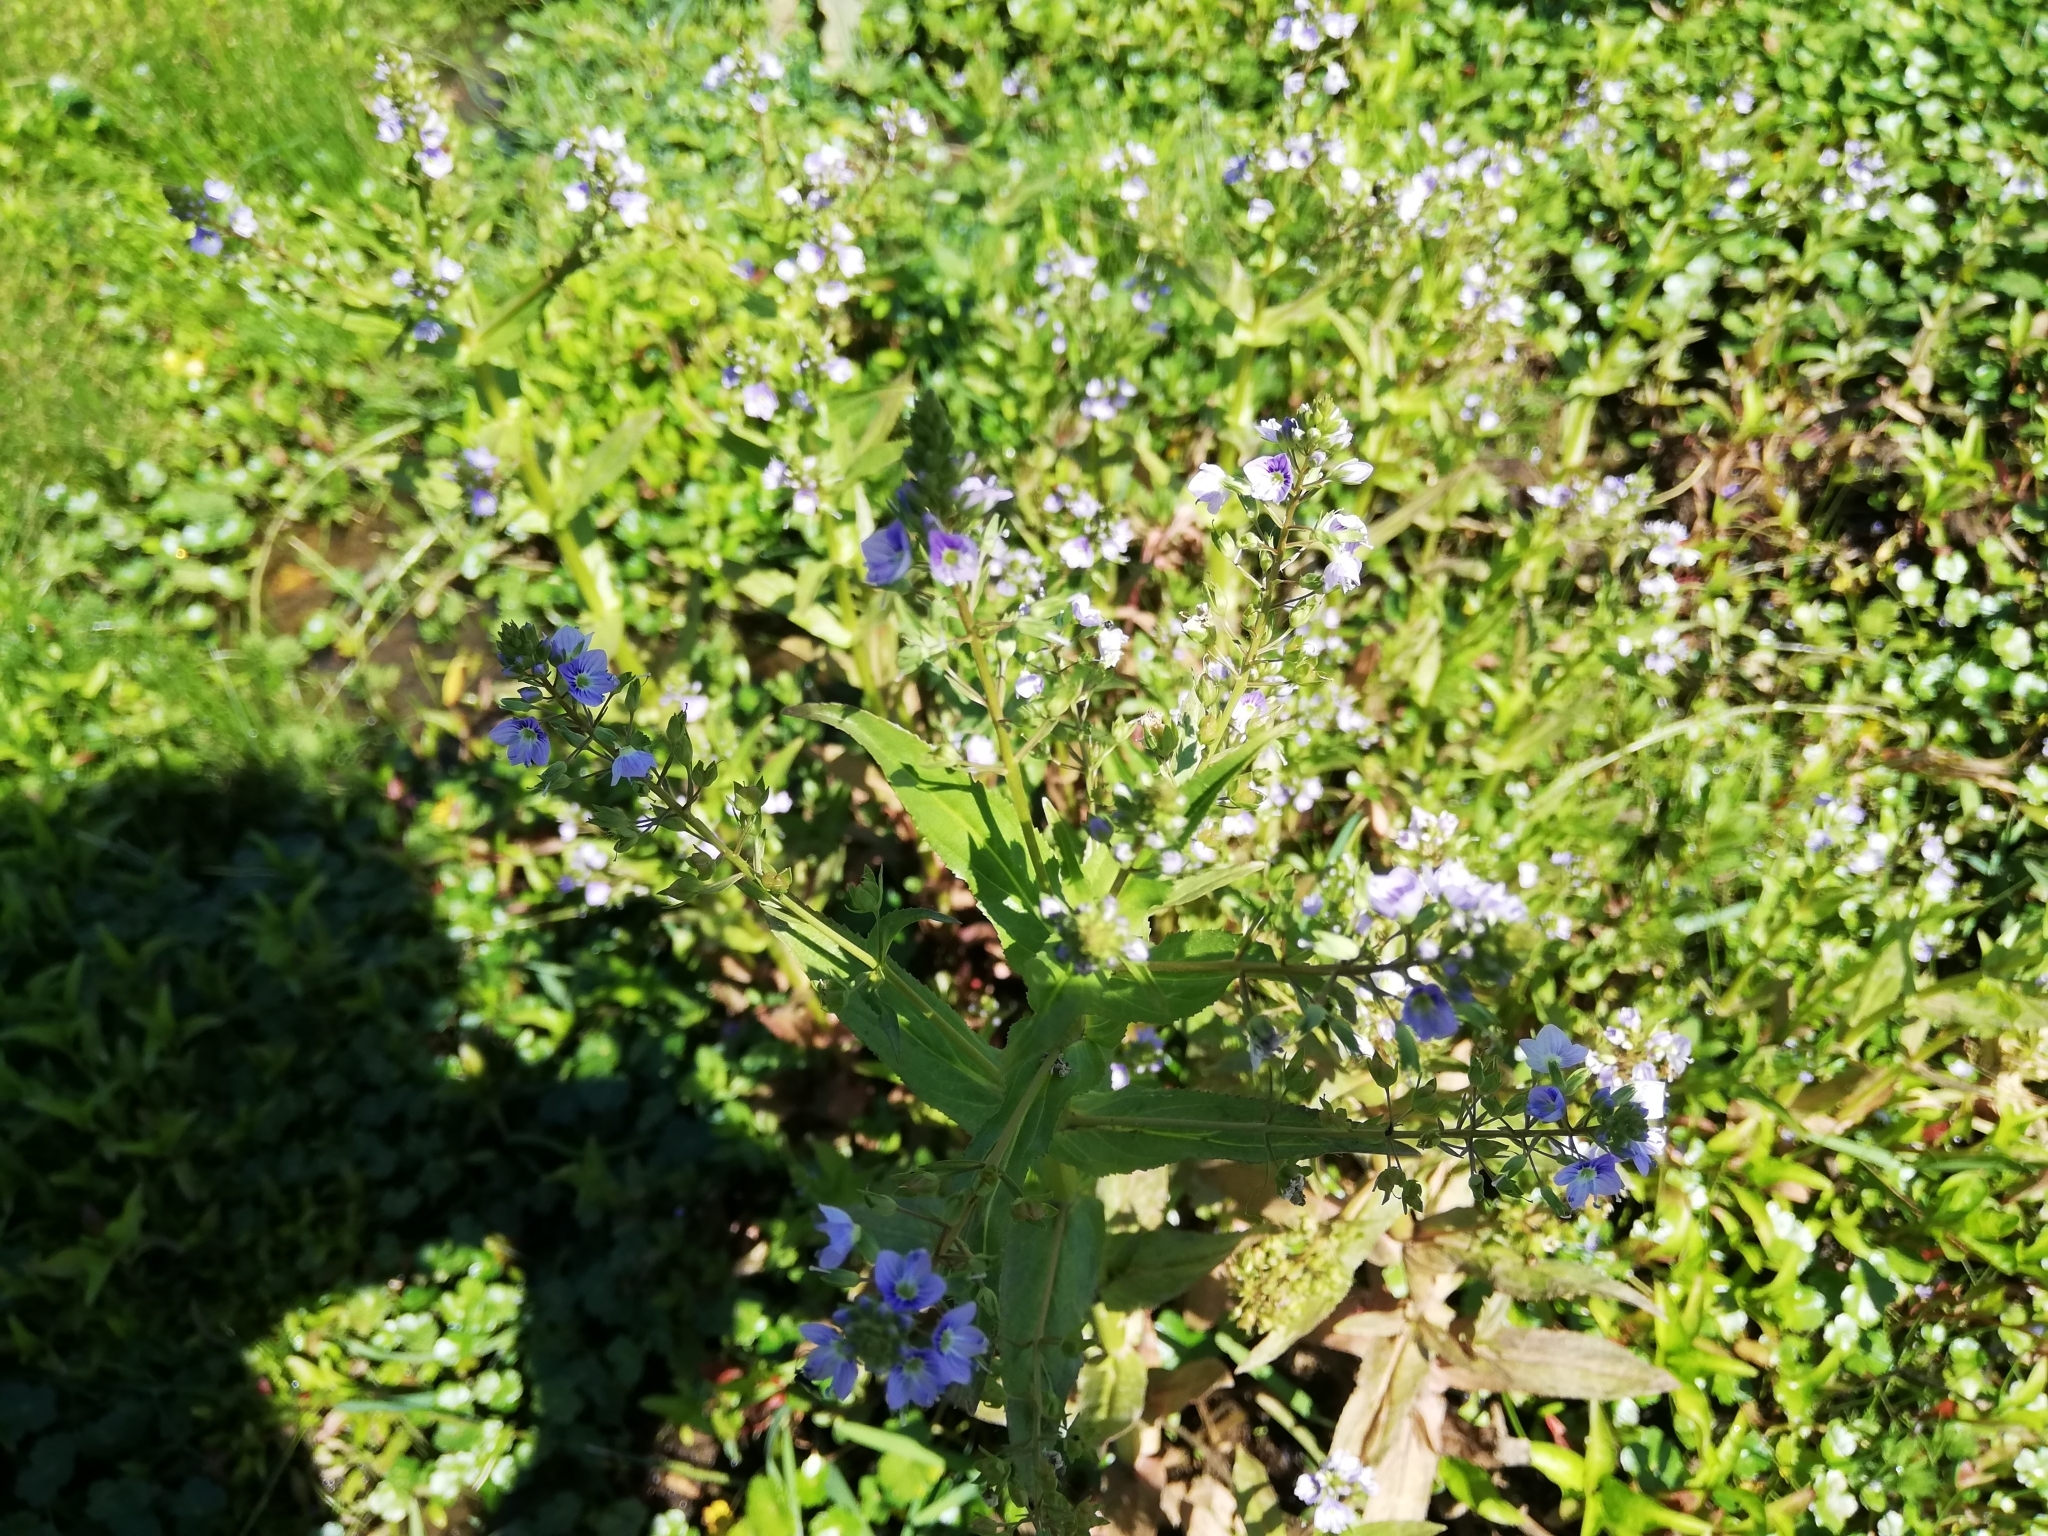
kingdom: Plantae
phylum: Tracheophyta
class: Magnoliopsida
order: Lamiales
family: Plantaginaceae
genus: Veronica
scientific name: Veronica anagallis-aquatica
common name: Water speedwell
